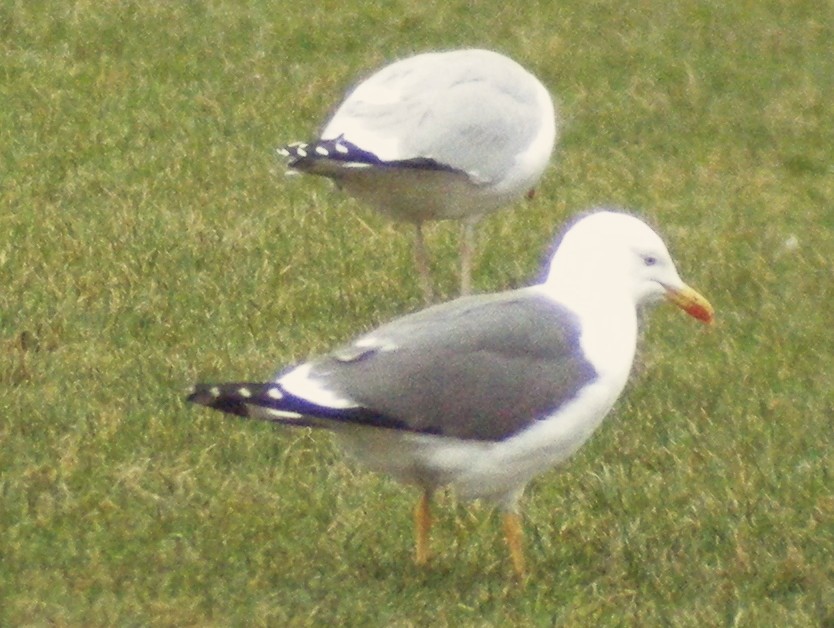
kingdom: Animalia
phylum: Chordata
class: Aves
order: Charadriiformes
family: Laridae
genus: Larus
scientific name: Larus fuscus
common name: Lesser black-backed gull
